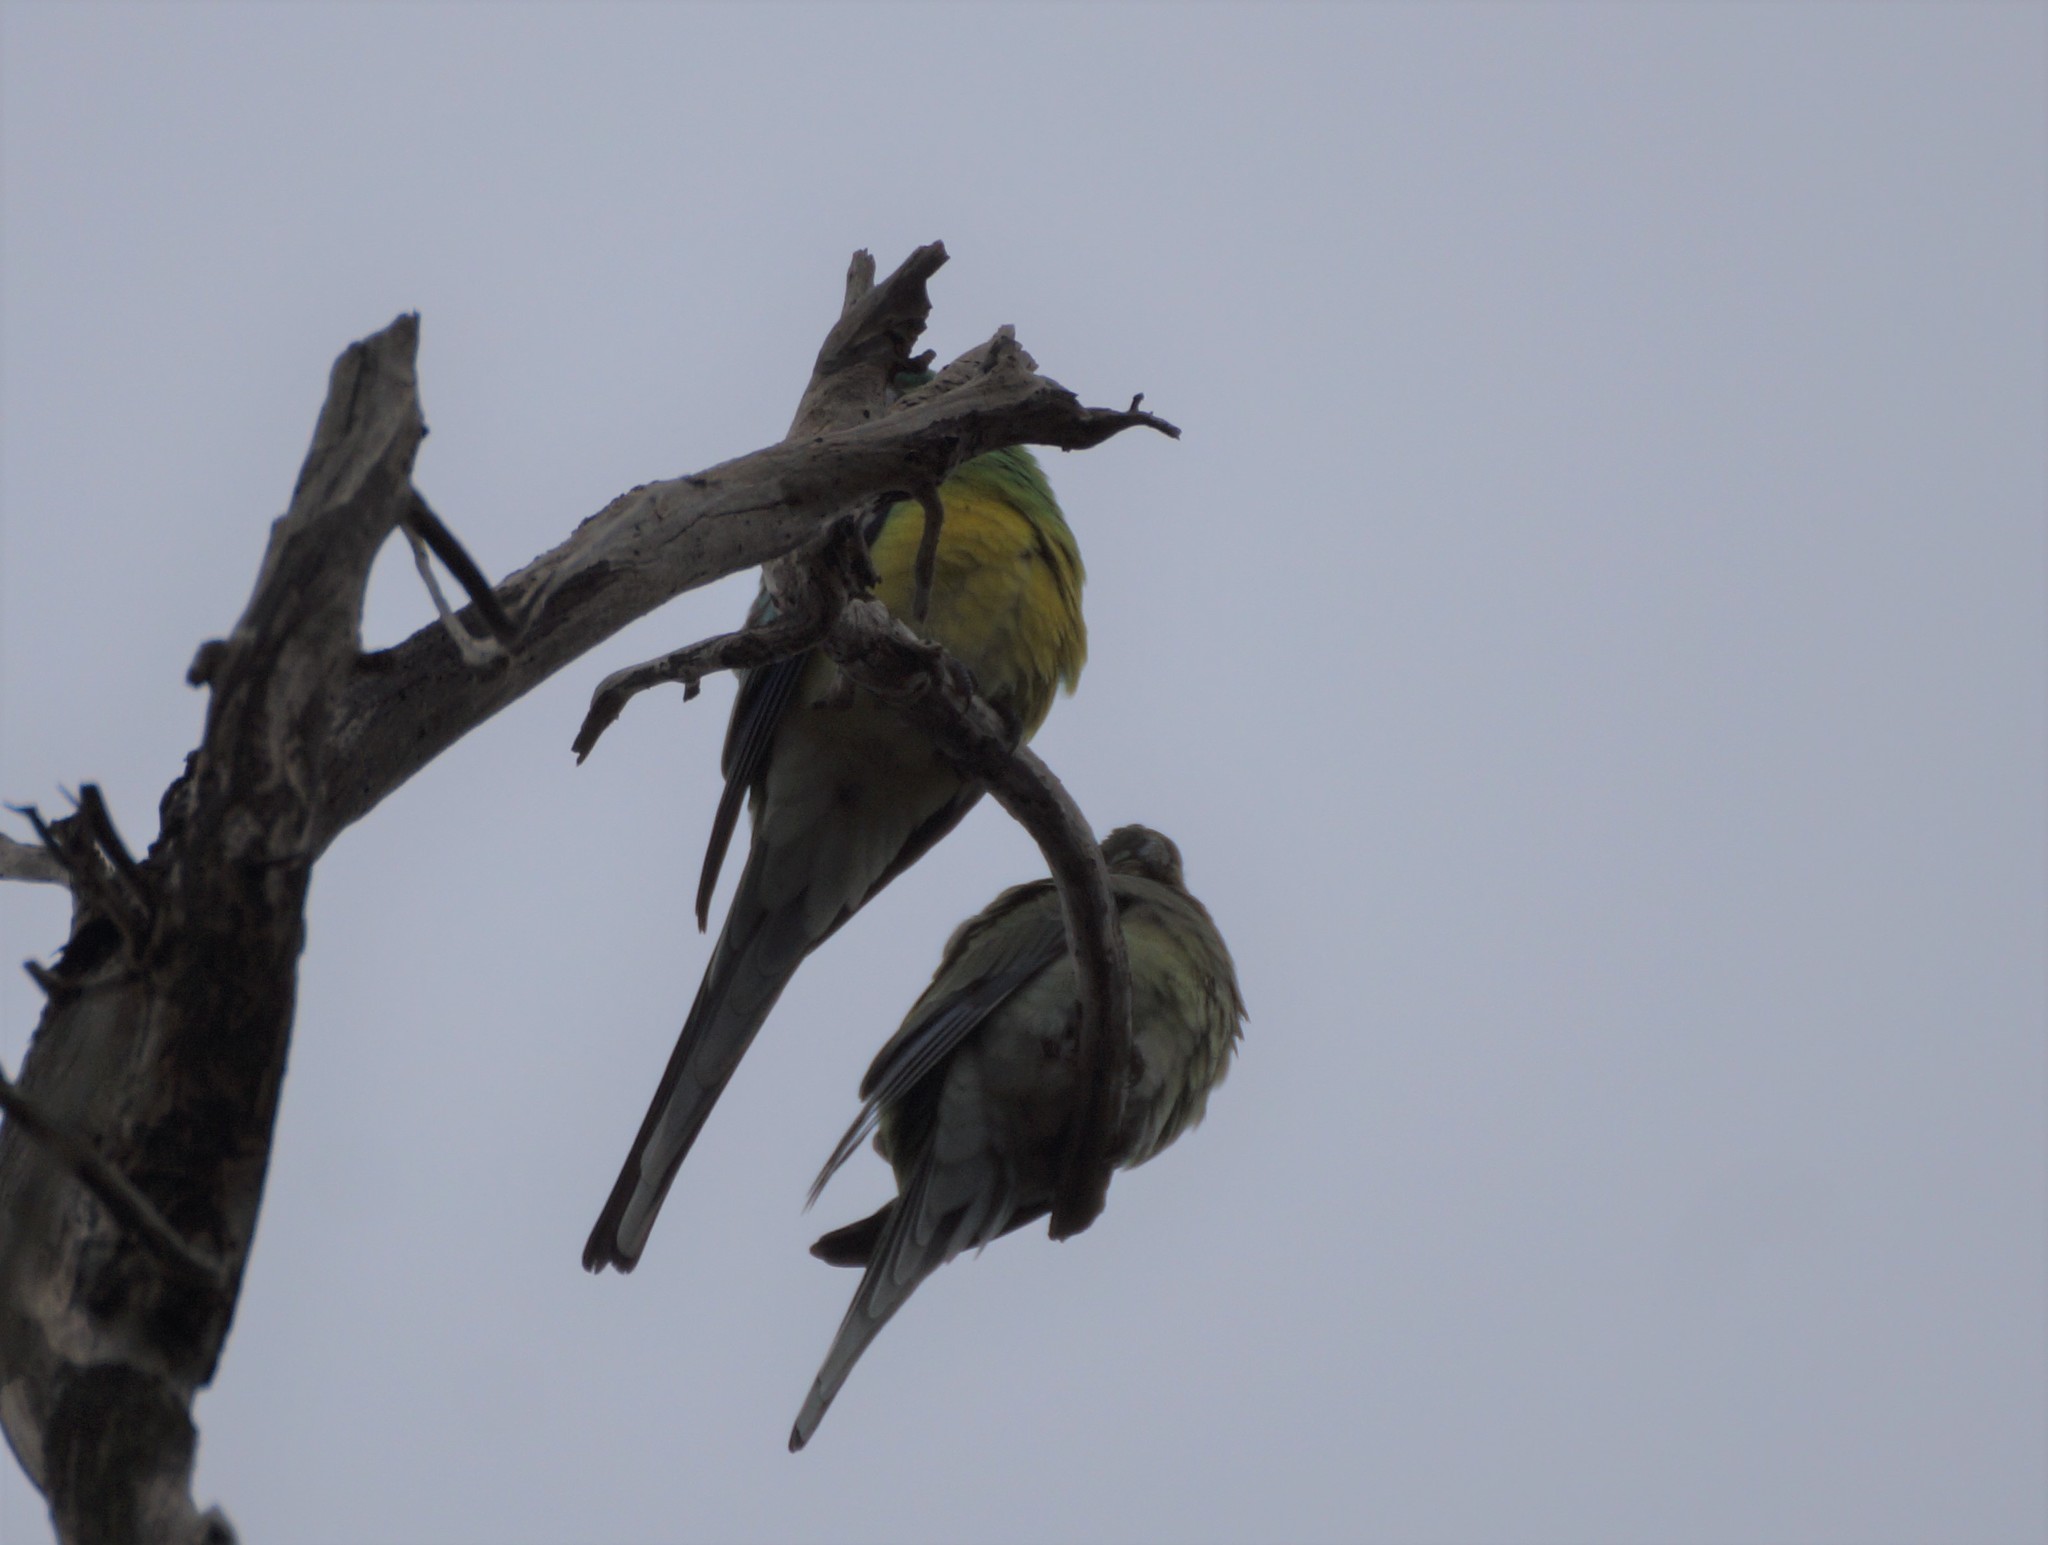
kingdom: Animalia
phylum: Chordata
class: Aves
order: Psittaciformes
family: Psittacidae
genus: Psephotus
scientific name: Psephotus haematonotus
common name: Red-rumped parrot
